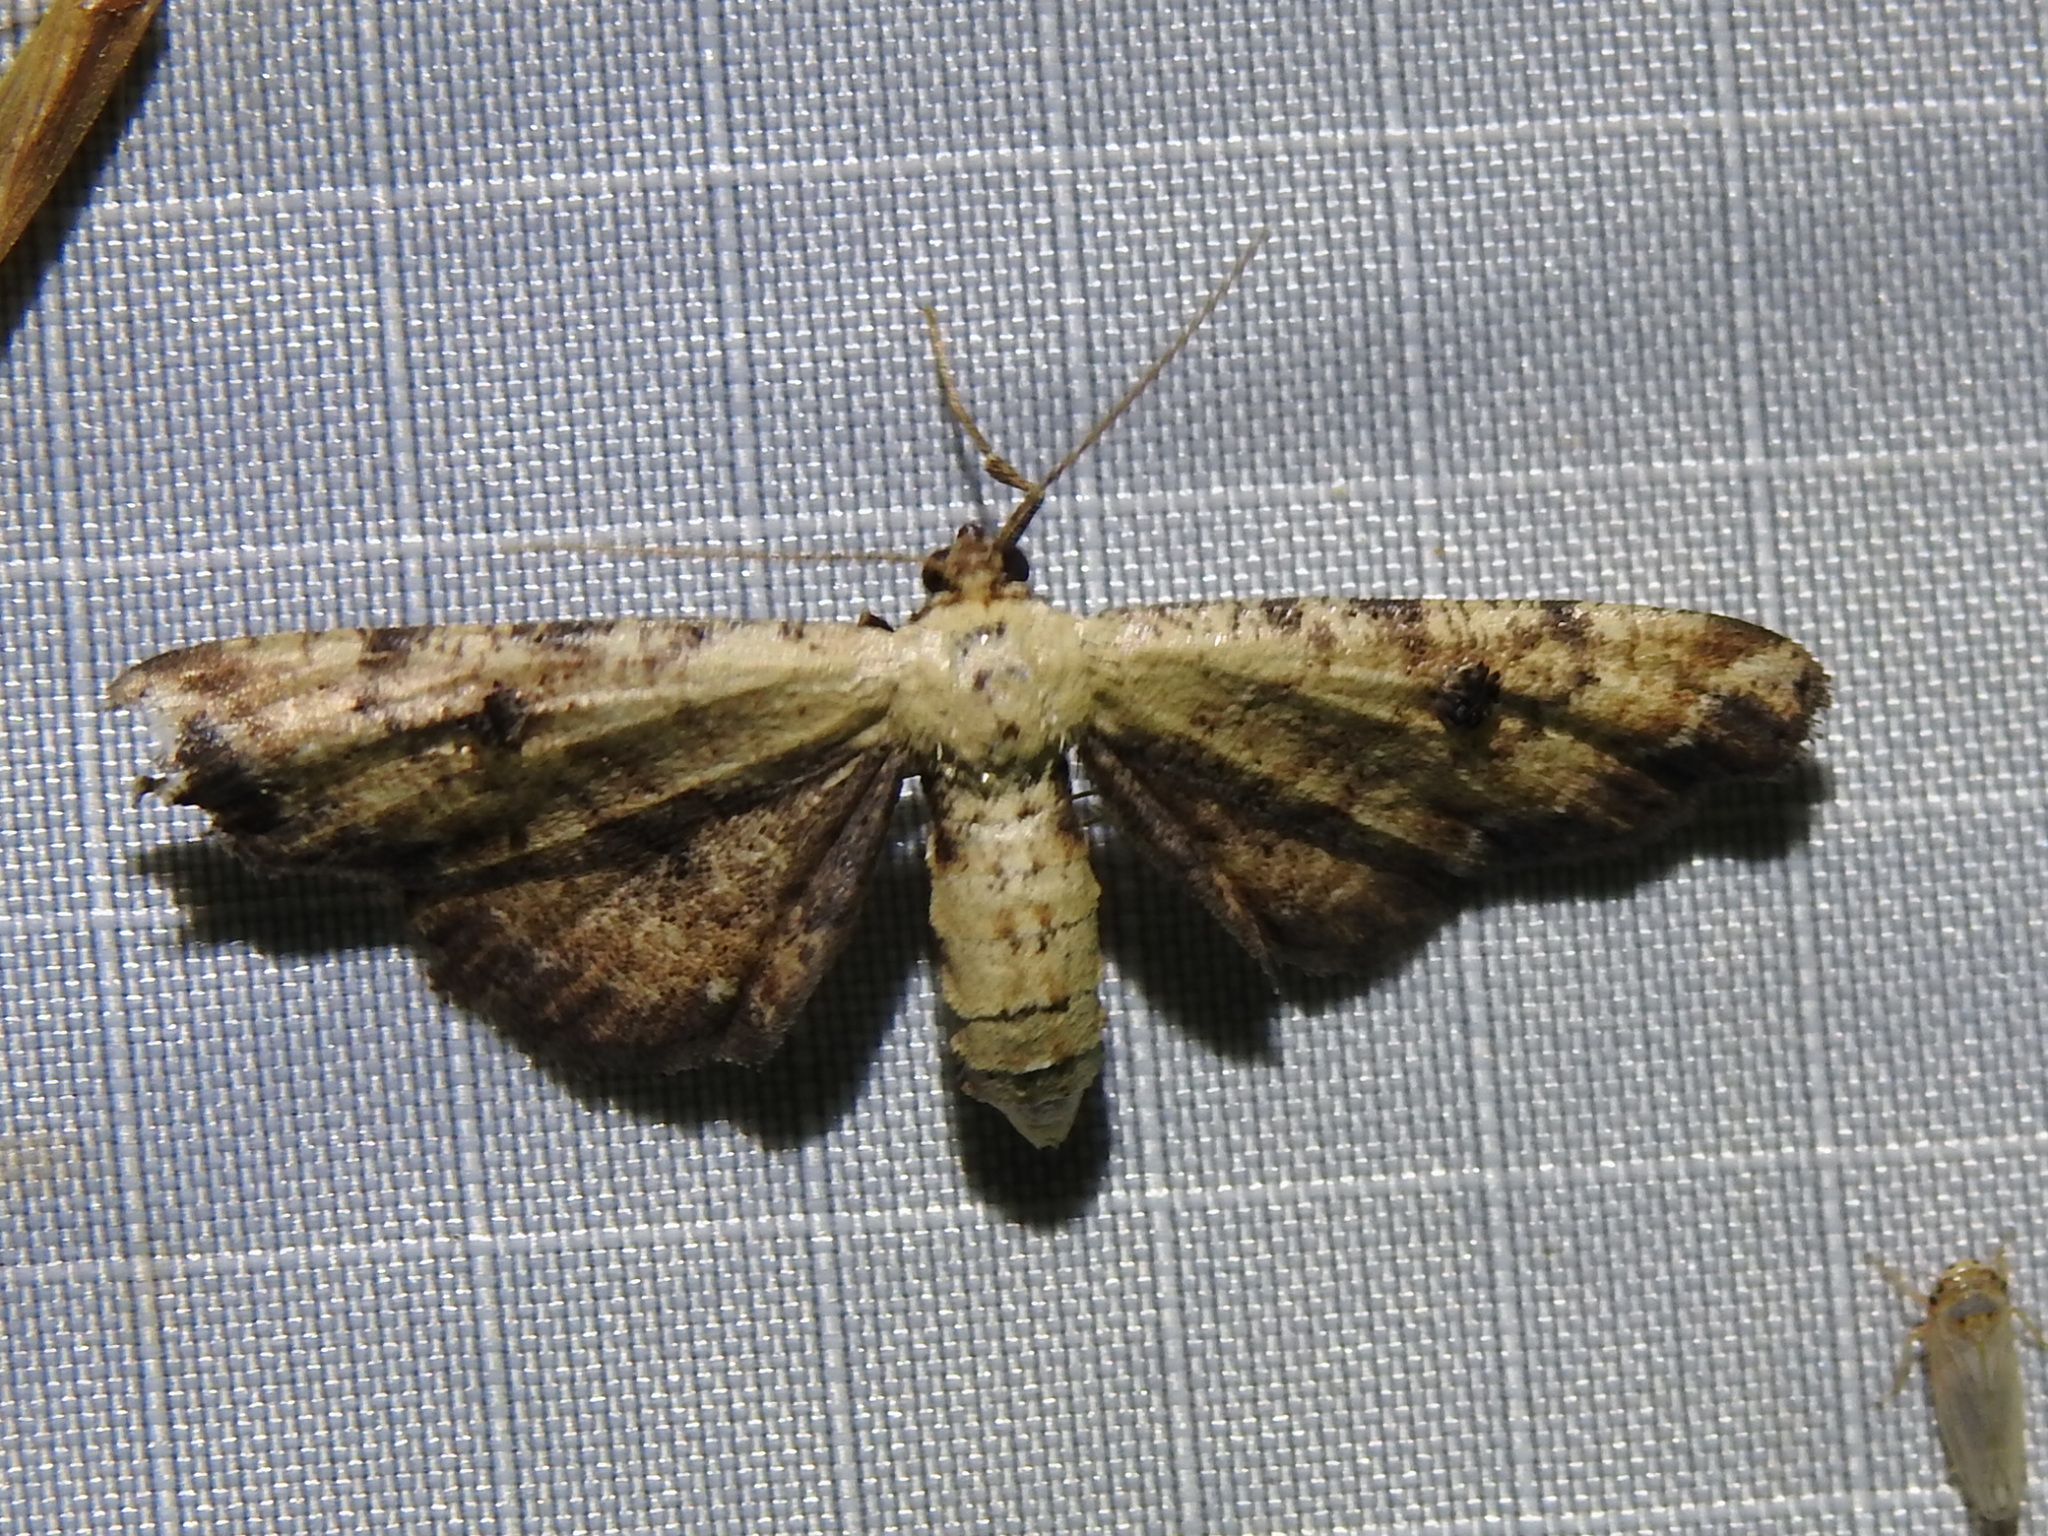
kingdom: Animalia
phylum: Arthropoda
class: Insecta
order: Lepidoptera
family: Geometridae
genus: Tornos
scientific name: Tornos scolopacinaria
